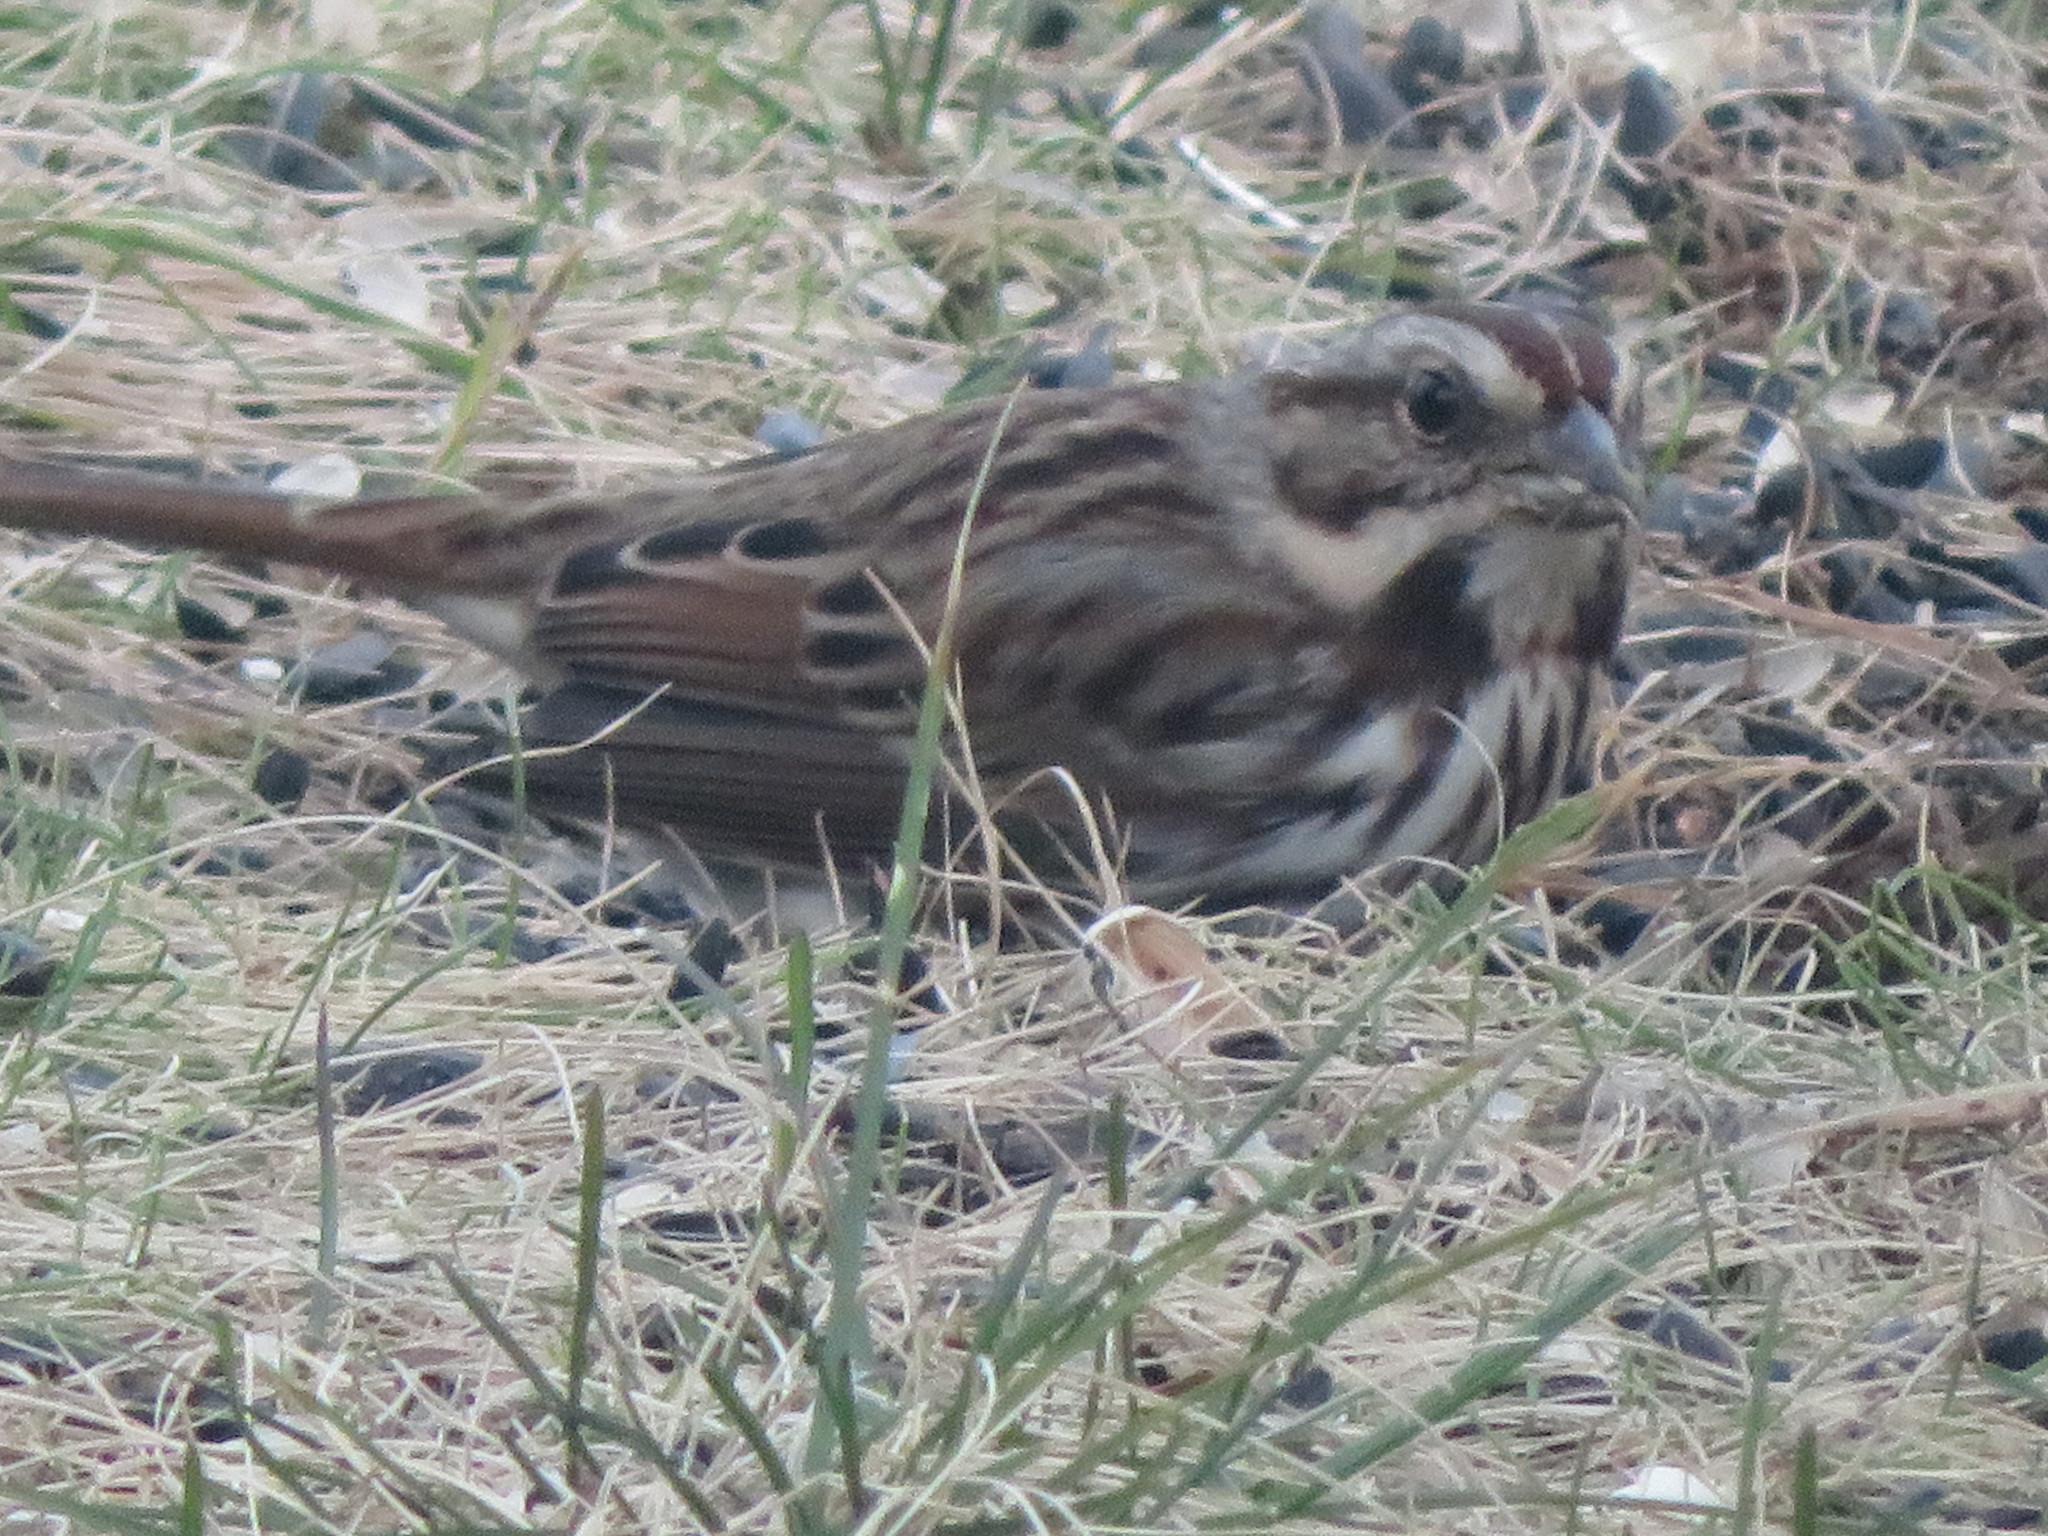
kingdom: Animalia
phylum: Chordata
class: Aves
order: Passeriformes
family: Passerellidae
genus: Melospiza
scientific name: Melospiza melodia
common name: Song sparrow
